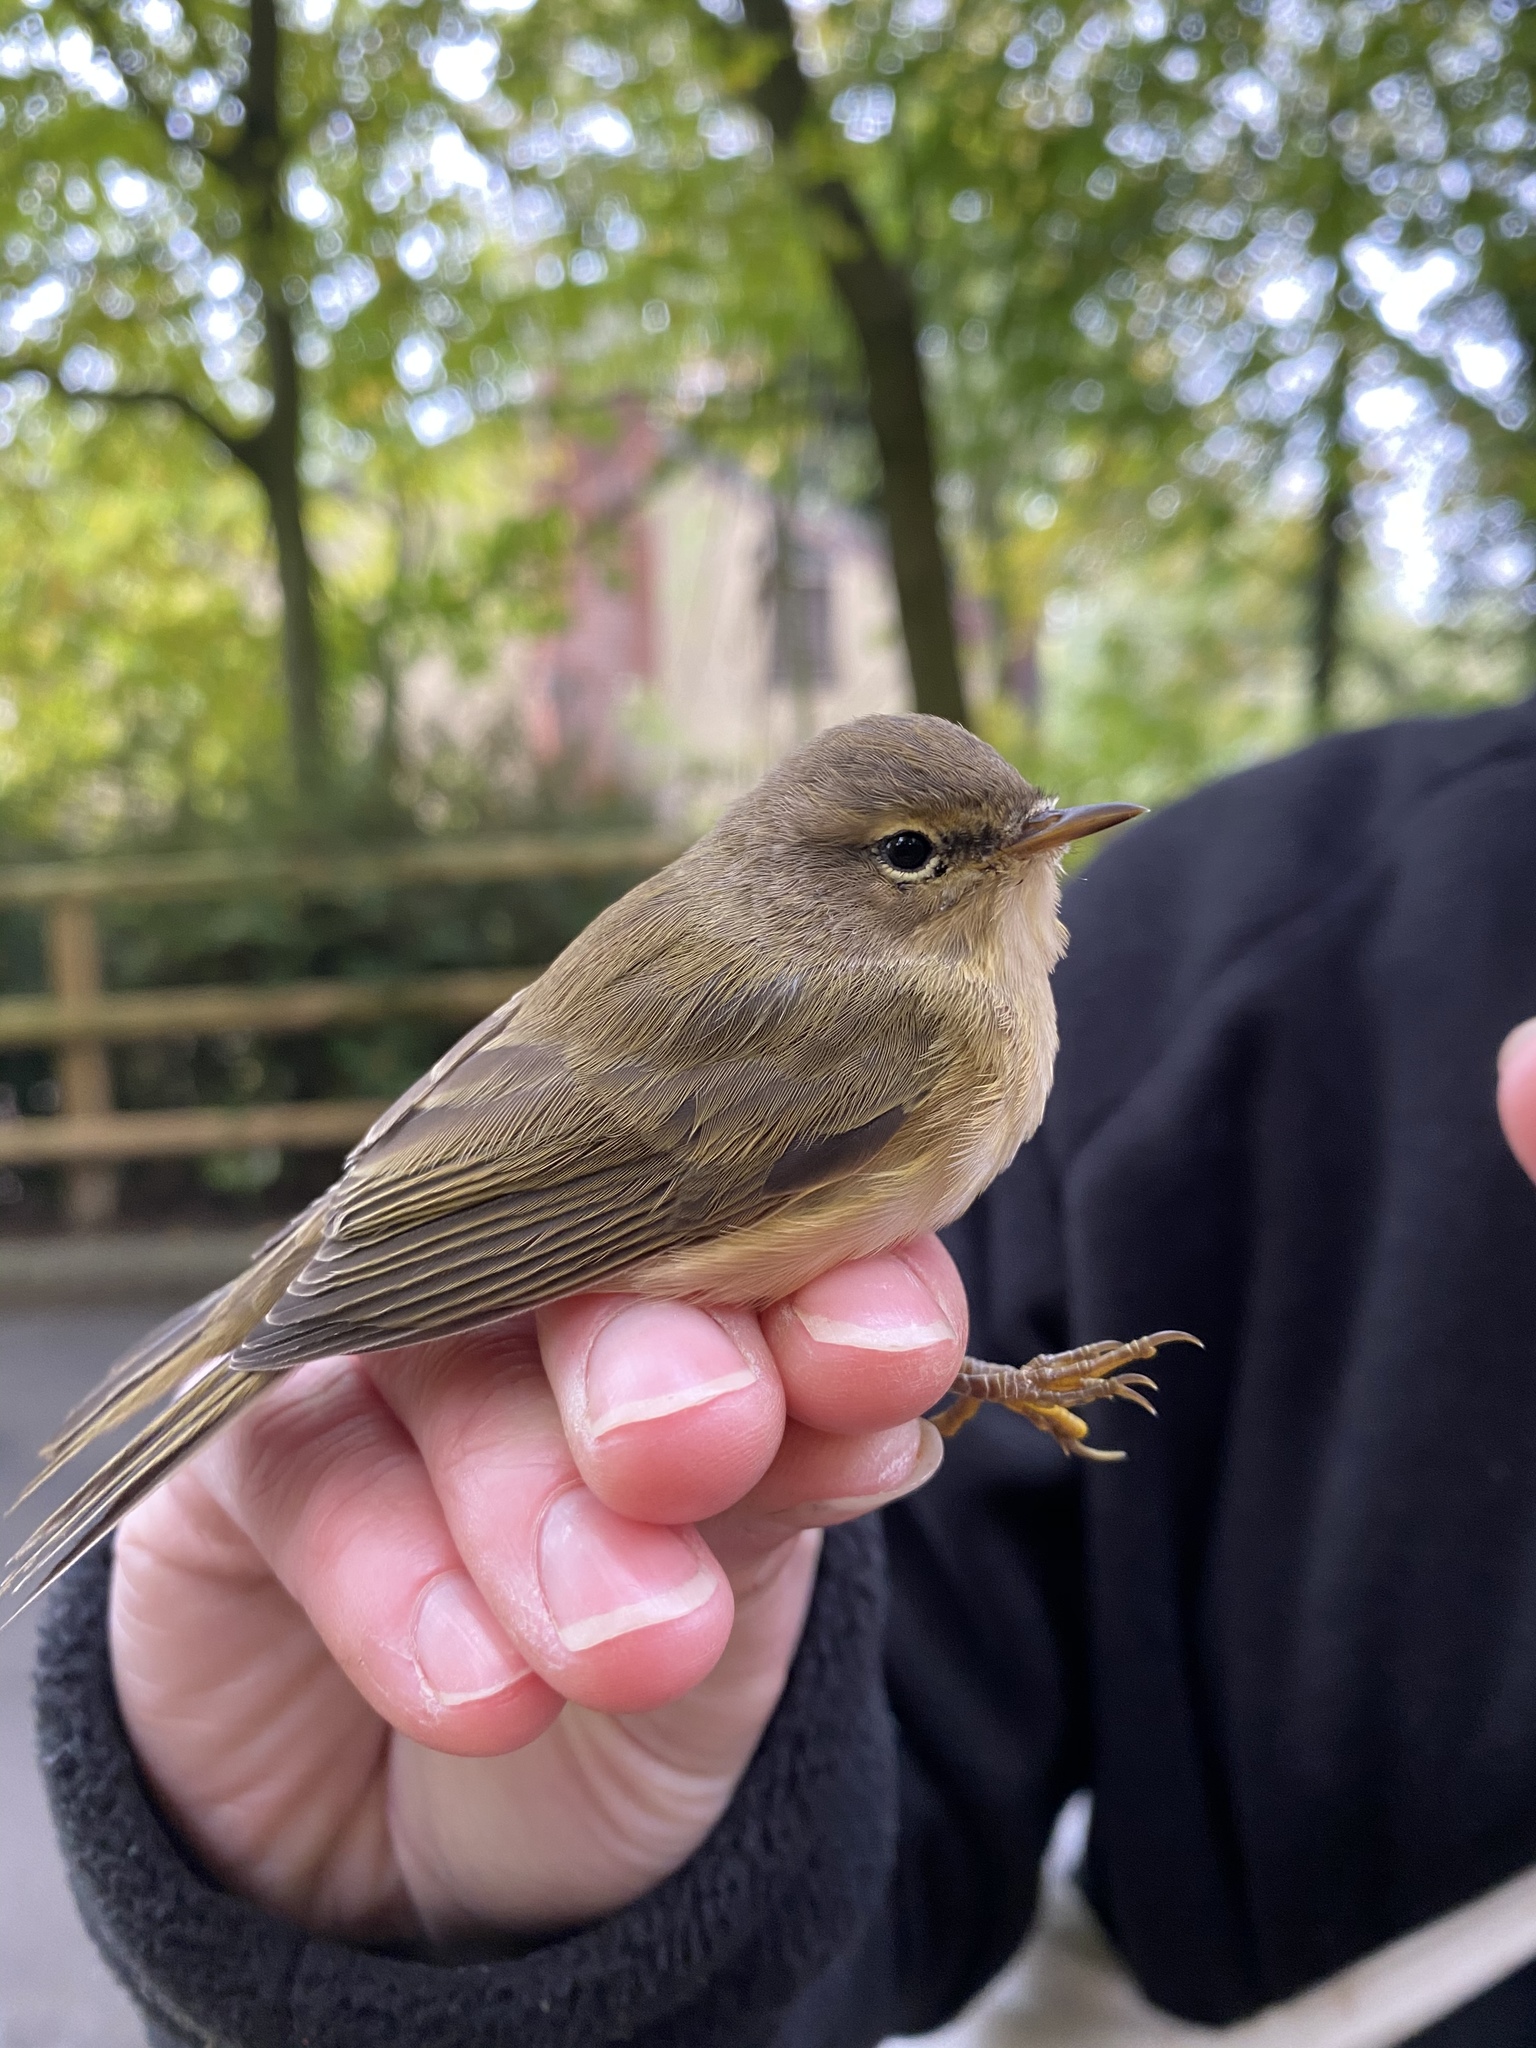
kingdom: Animalia
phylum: Chordata
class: Aves
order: Passeriformes
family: Phylloscopidae
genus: Phylloscopus
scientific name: Phylloscopus collybita
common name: Common chiffchaff
